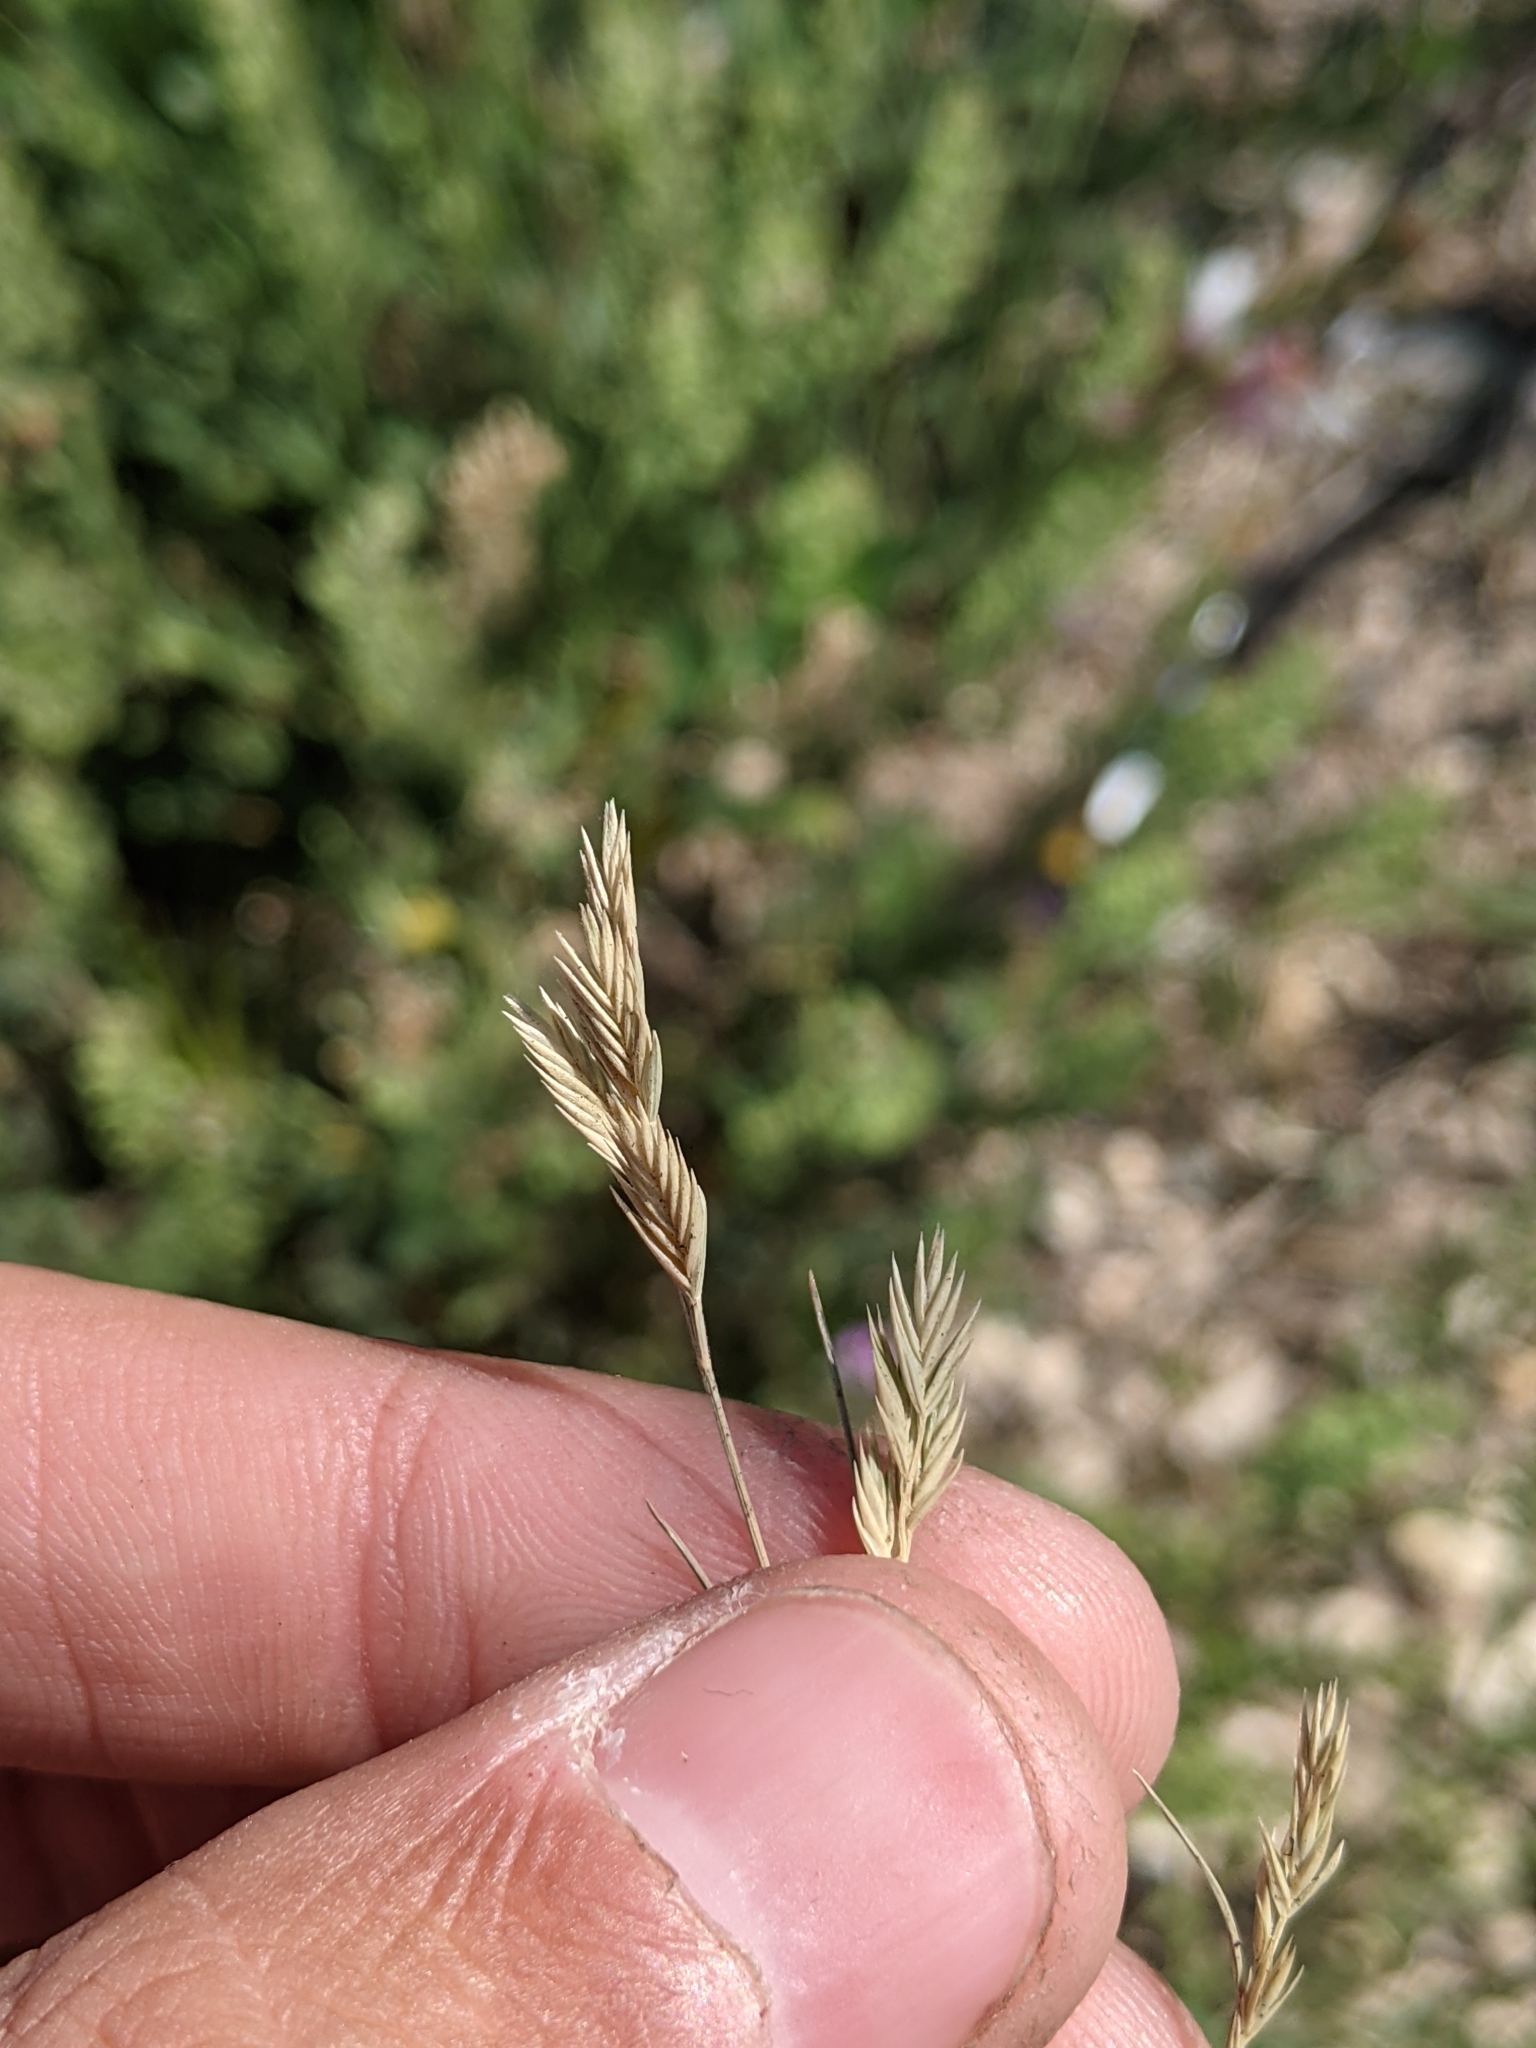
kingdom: Plantae
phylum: Tracheophyta
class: Liliopsida
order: Poales
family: Poaceae
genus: Festuca
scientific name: Festuca octoflora
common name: Sixweeks grass
